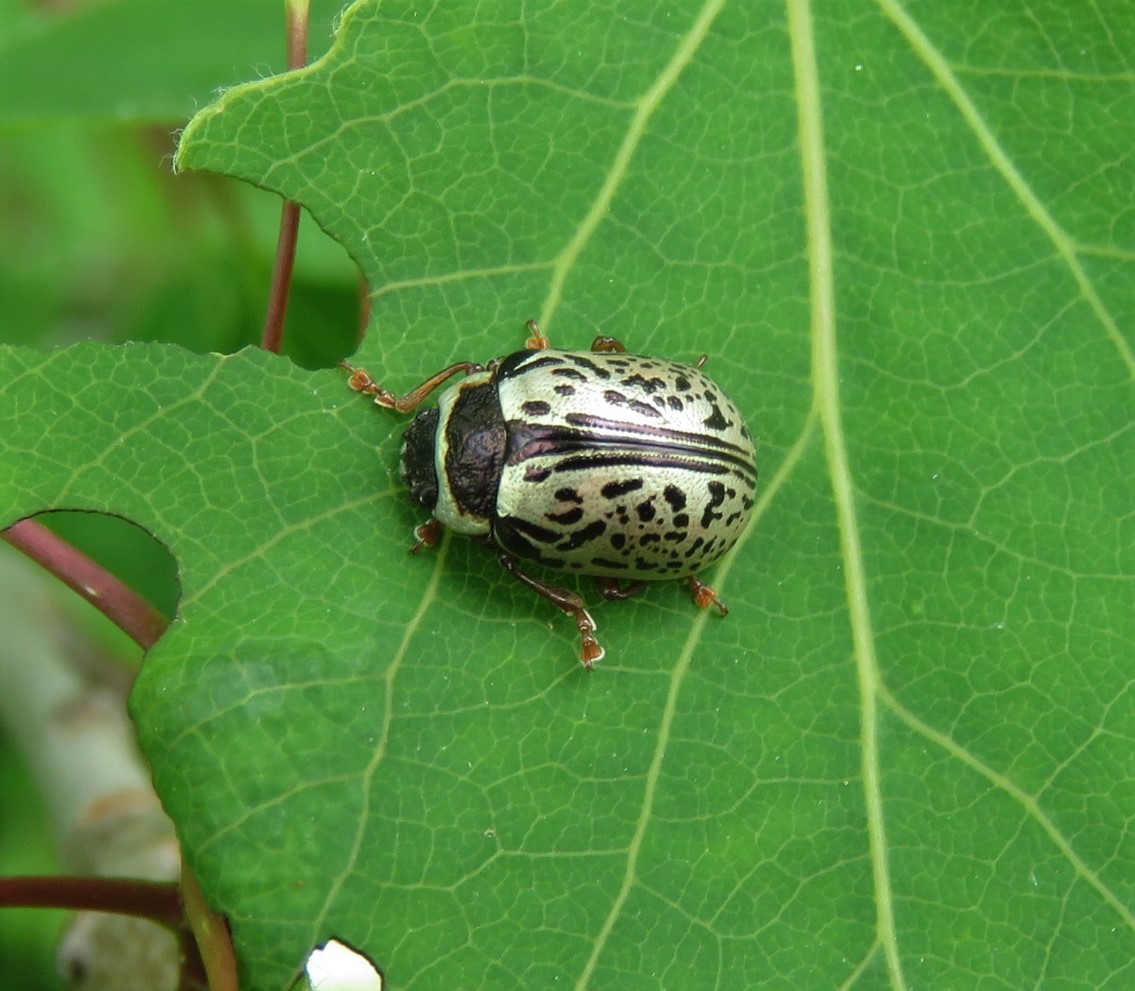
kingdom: Animalia
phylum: Arthropoda
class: Insecta
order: Coleoptera
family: Chrysomelidae
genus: Calligrapha
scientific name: Calligrapha multipunctata
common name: Common willow calligrapher beetle
